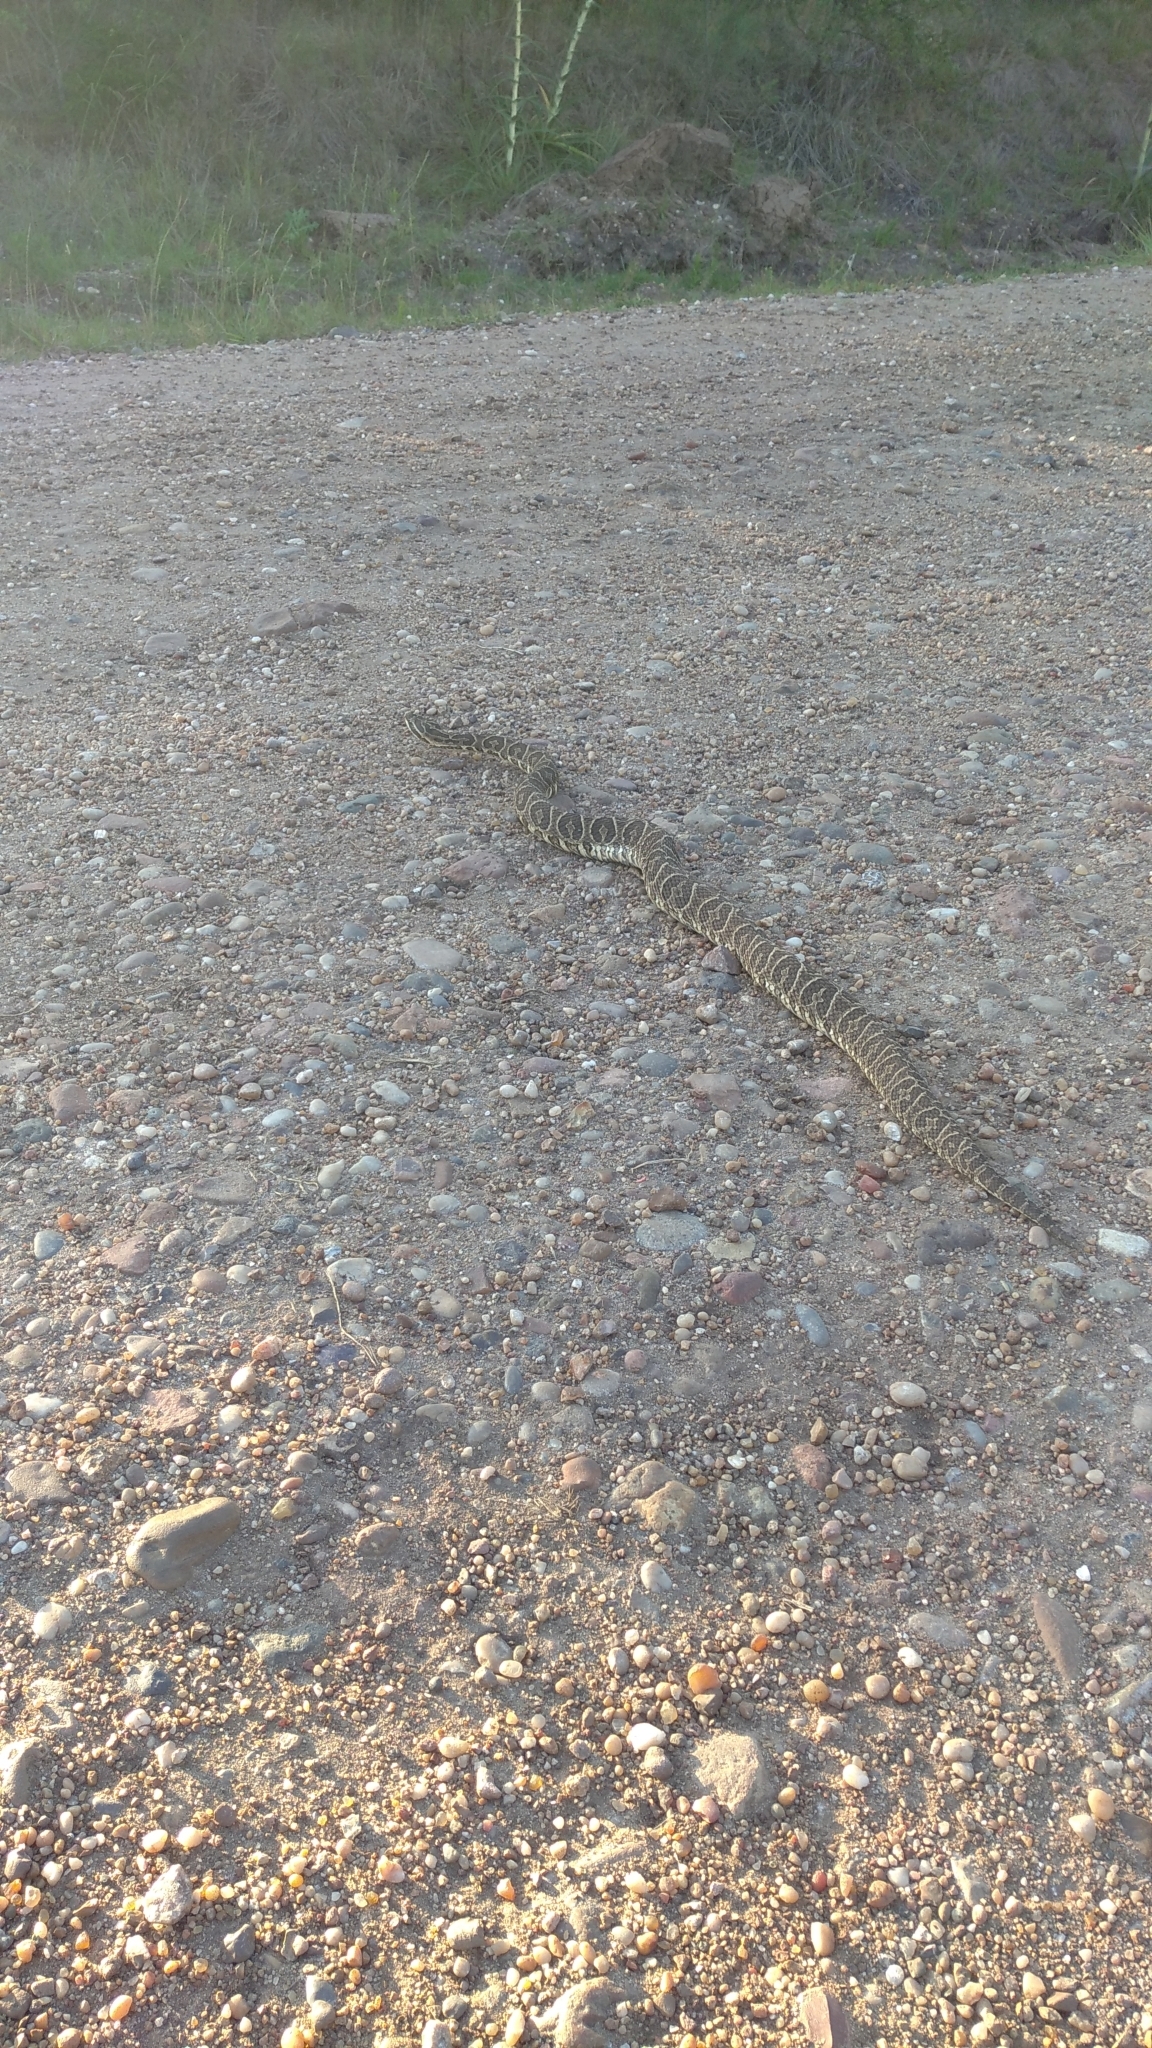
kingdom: Animalia
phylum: Chordata
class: Squamata
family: Viperidae
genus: Bothrops
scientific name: Bothrops alternatus
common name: Urutu
